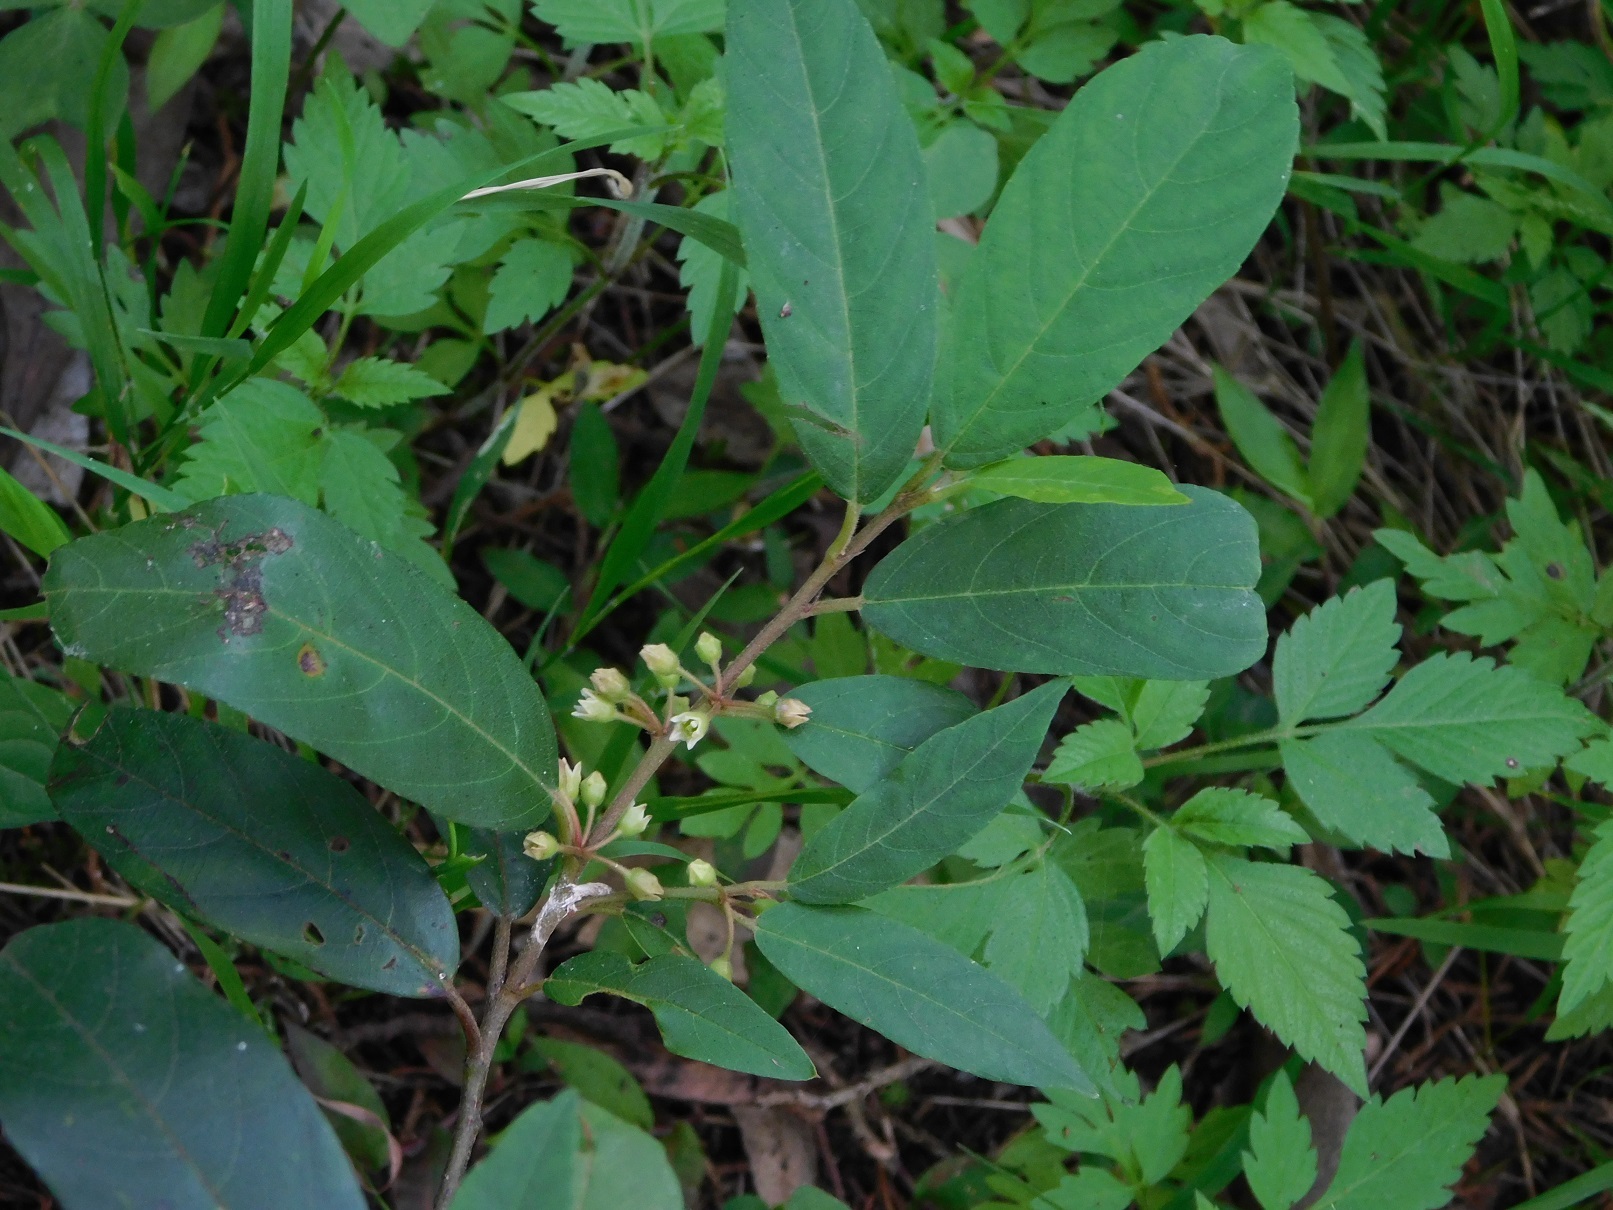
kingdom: Plantae
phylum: Tracheophyta
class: Magnoliopsida
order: Rosales
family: Rhamnaceae
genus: Frangula
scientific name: Frangula mucronata
